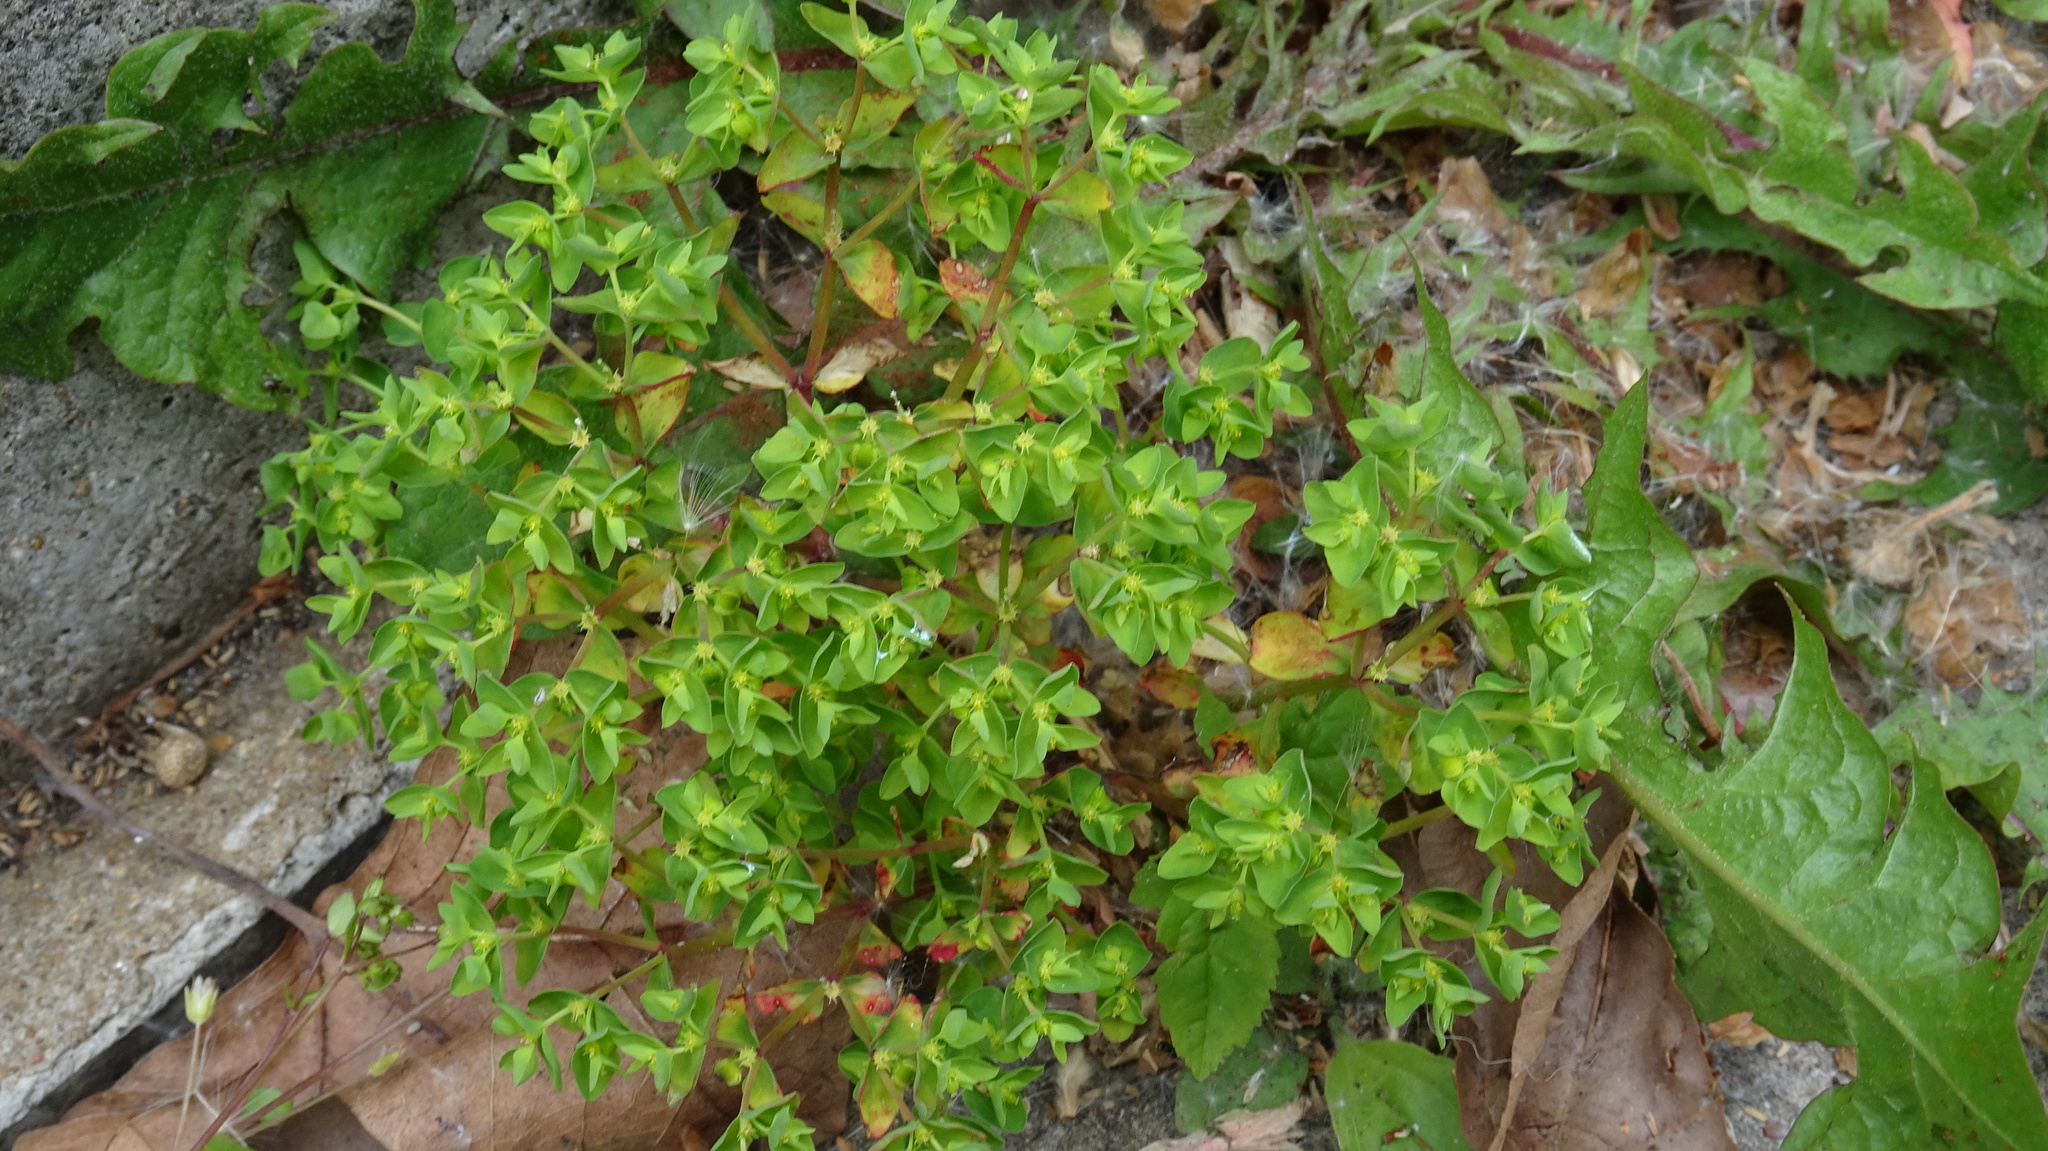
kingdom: Plantae
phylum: Tracheophyta
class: Magnoliopsida
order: Malpighiales
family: Euphorbiaceae
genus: Euphorbia
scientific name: Euphorbia peplus
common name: Petty spurge
